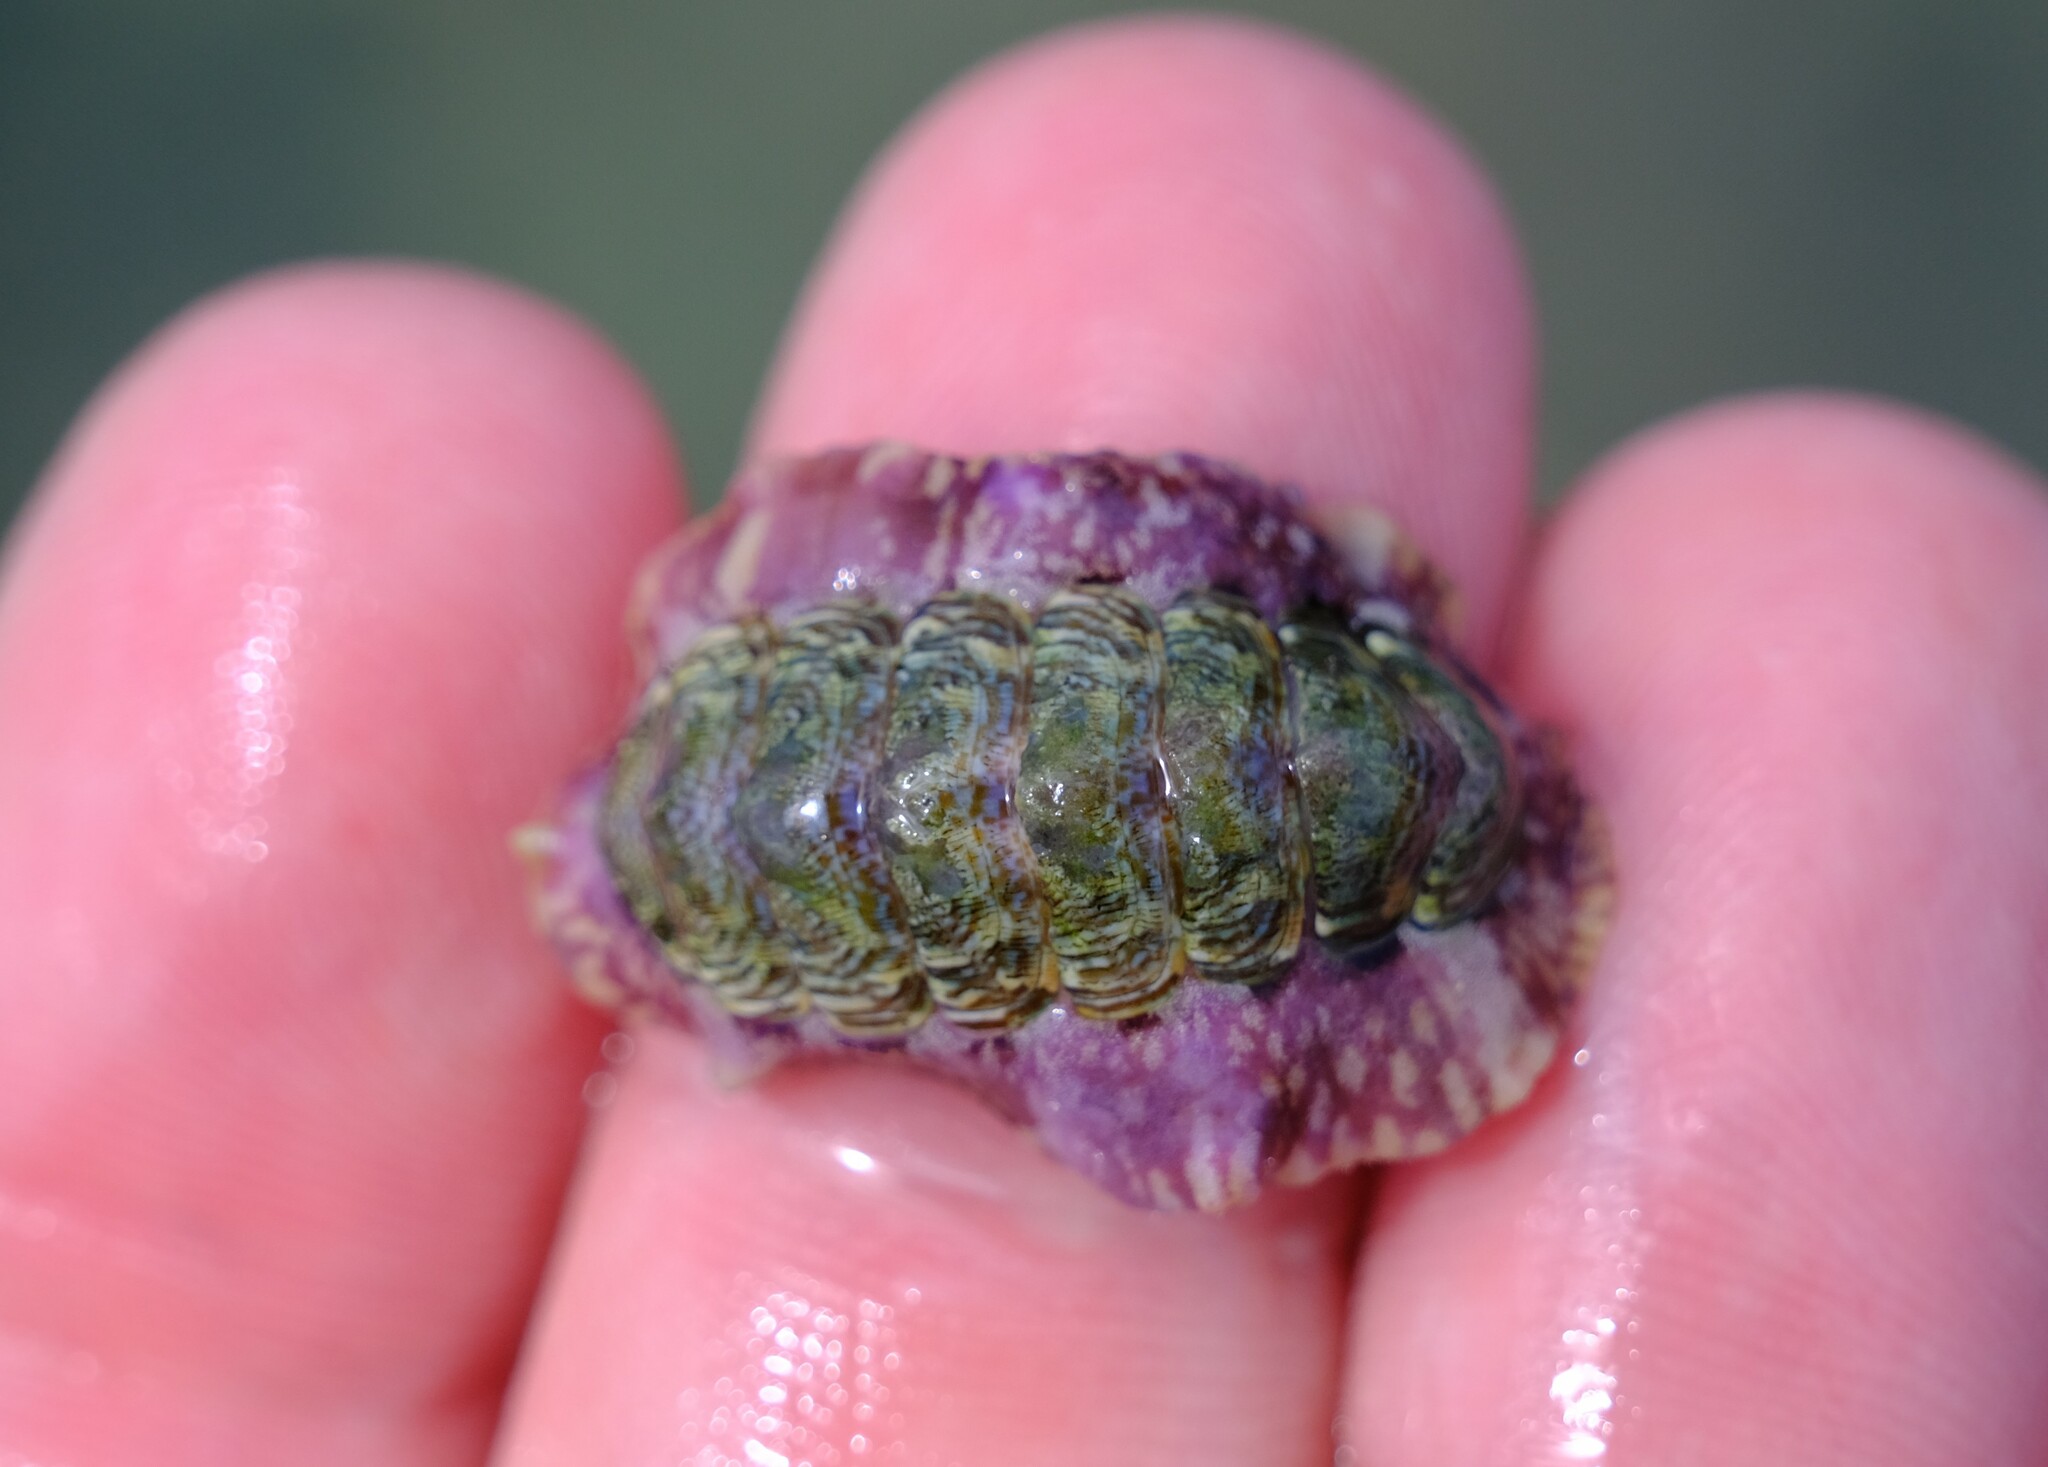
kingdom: Animalia
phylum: Mollusca
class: Polyplacophora
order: Chitonida
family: Chitonidae
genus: Onithochiton
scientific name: Onithochiton quercinus
